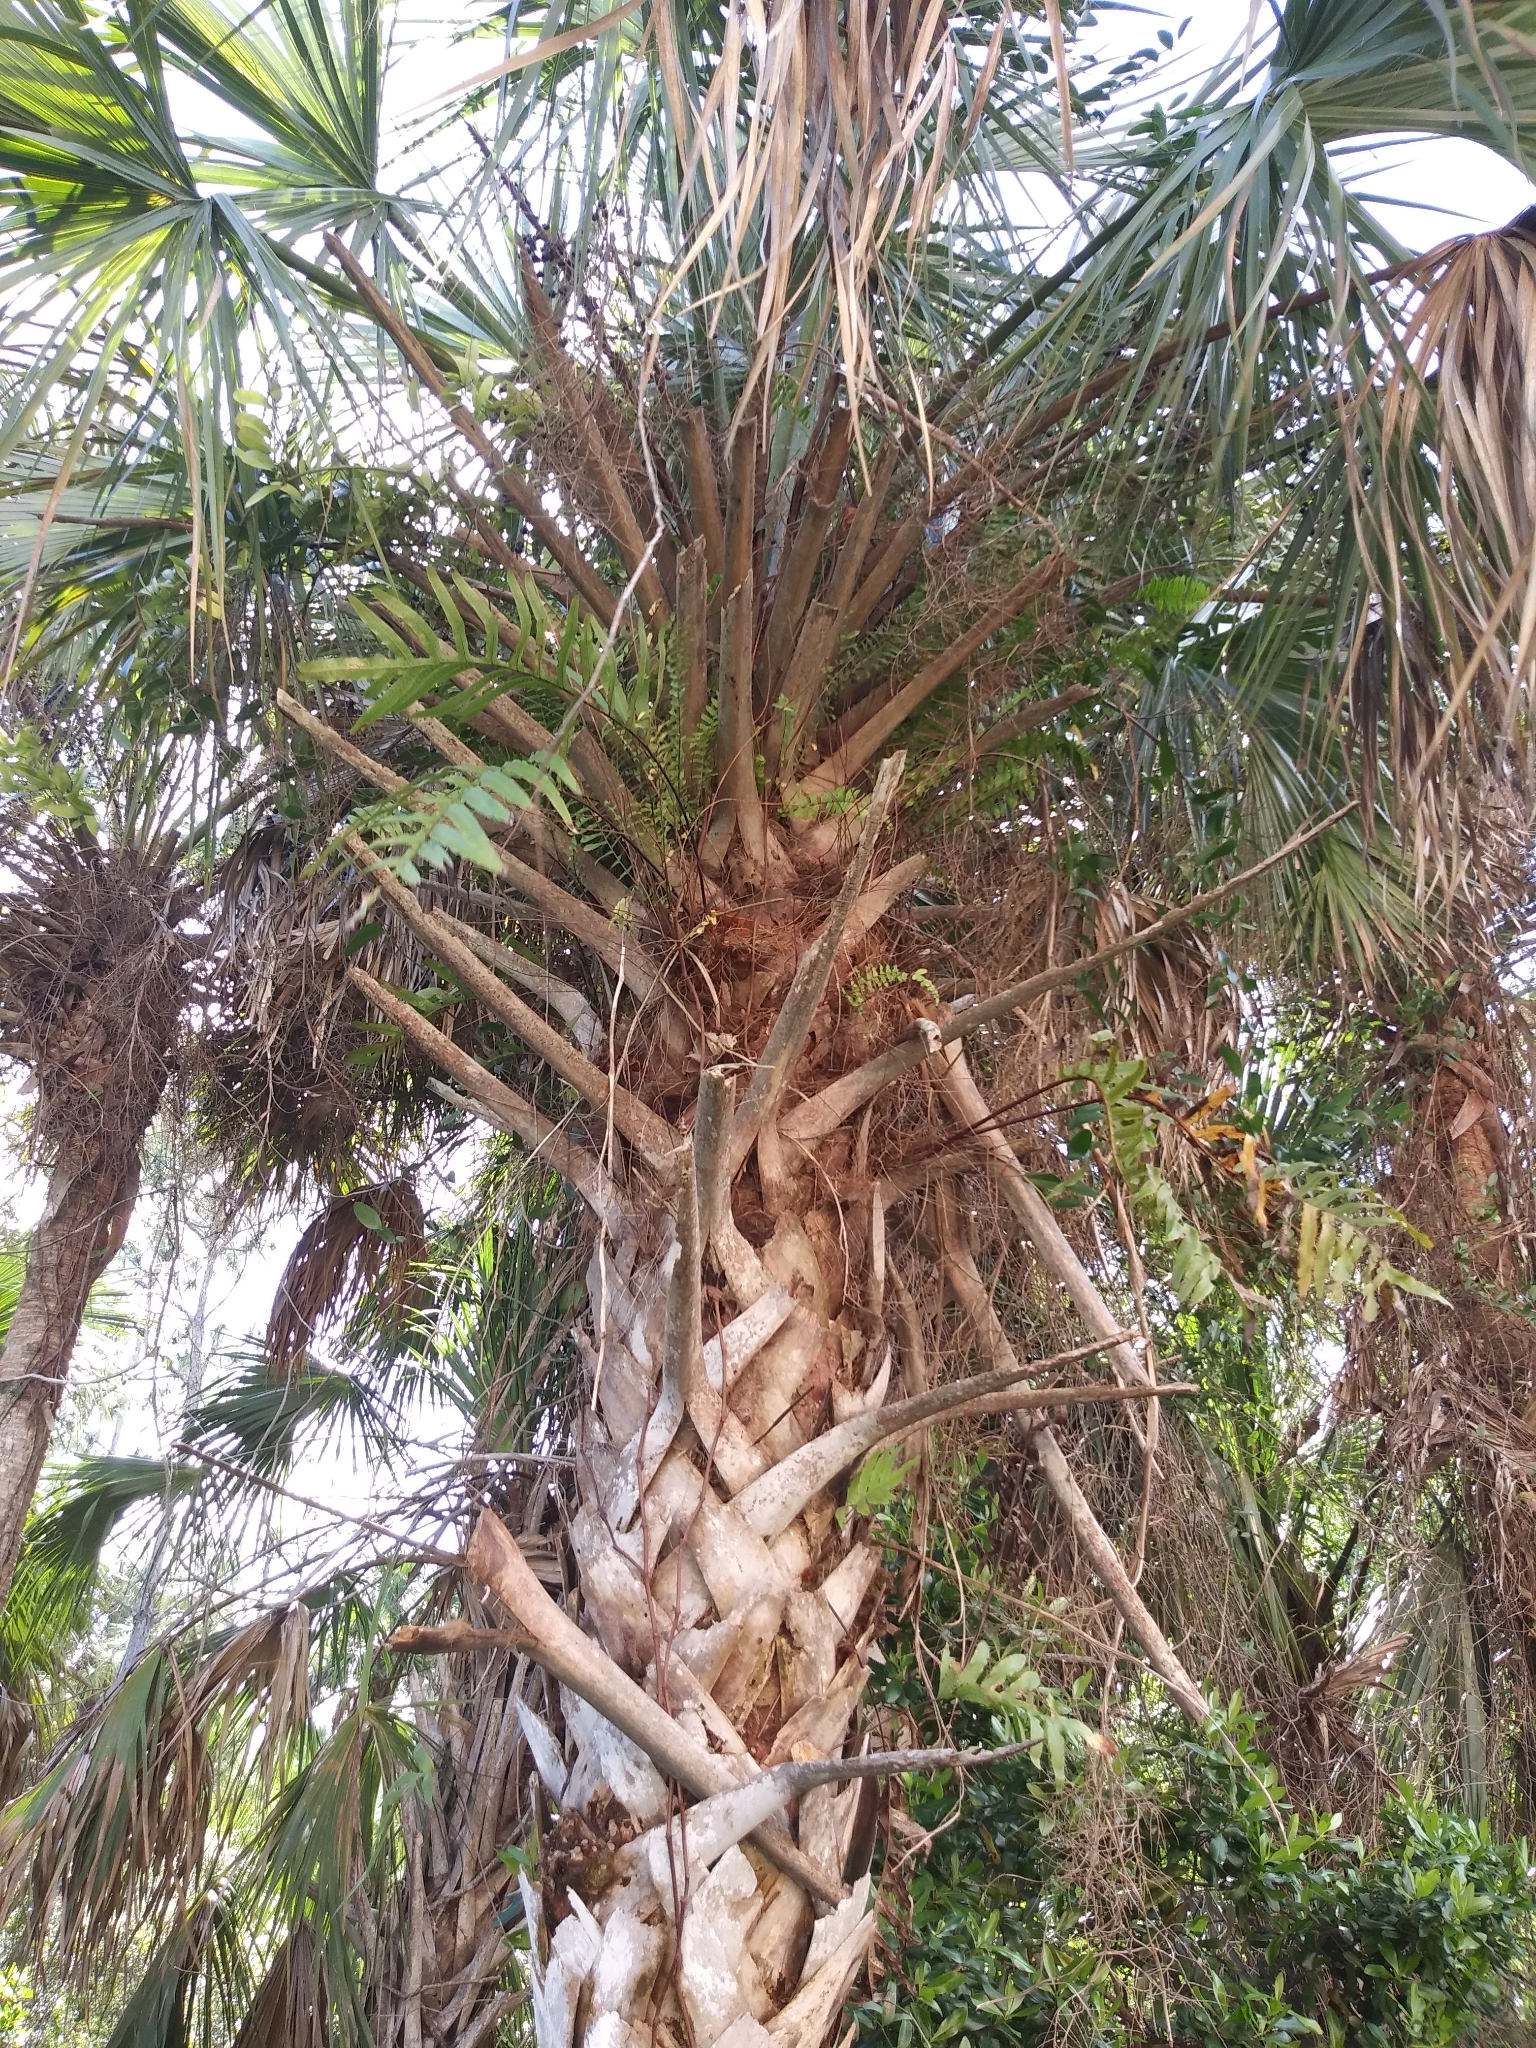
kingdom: Plantae
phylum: Tracheophyta
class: Liliopsida
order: Arecales
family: Arecaceae
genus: Sabal
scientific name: Sabal palmetto
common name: Blue palmetto
